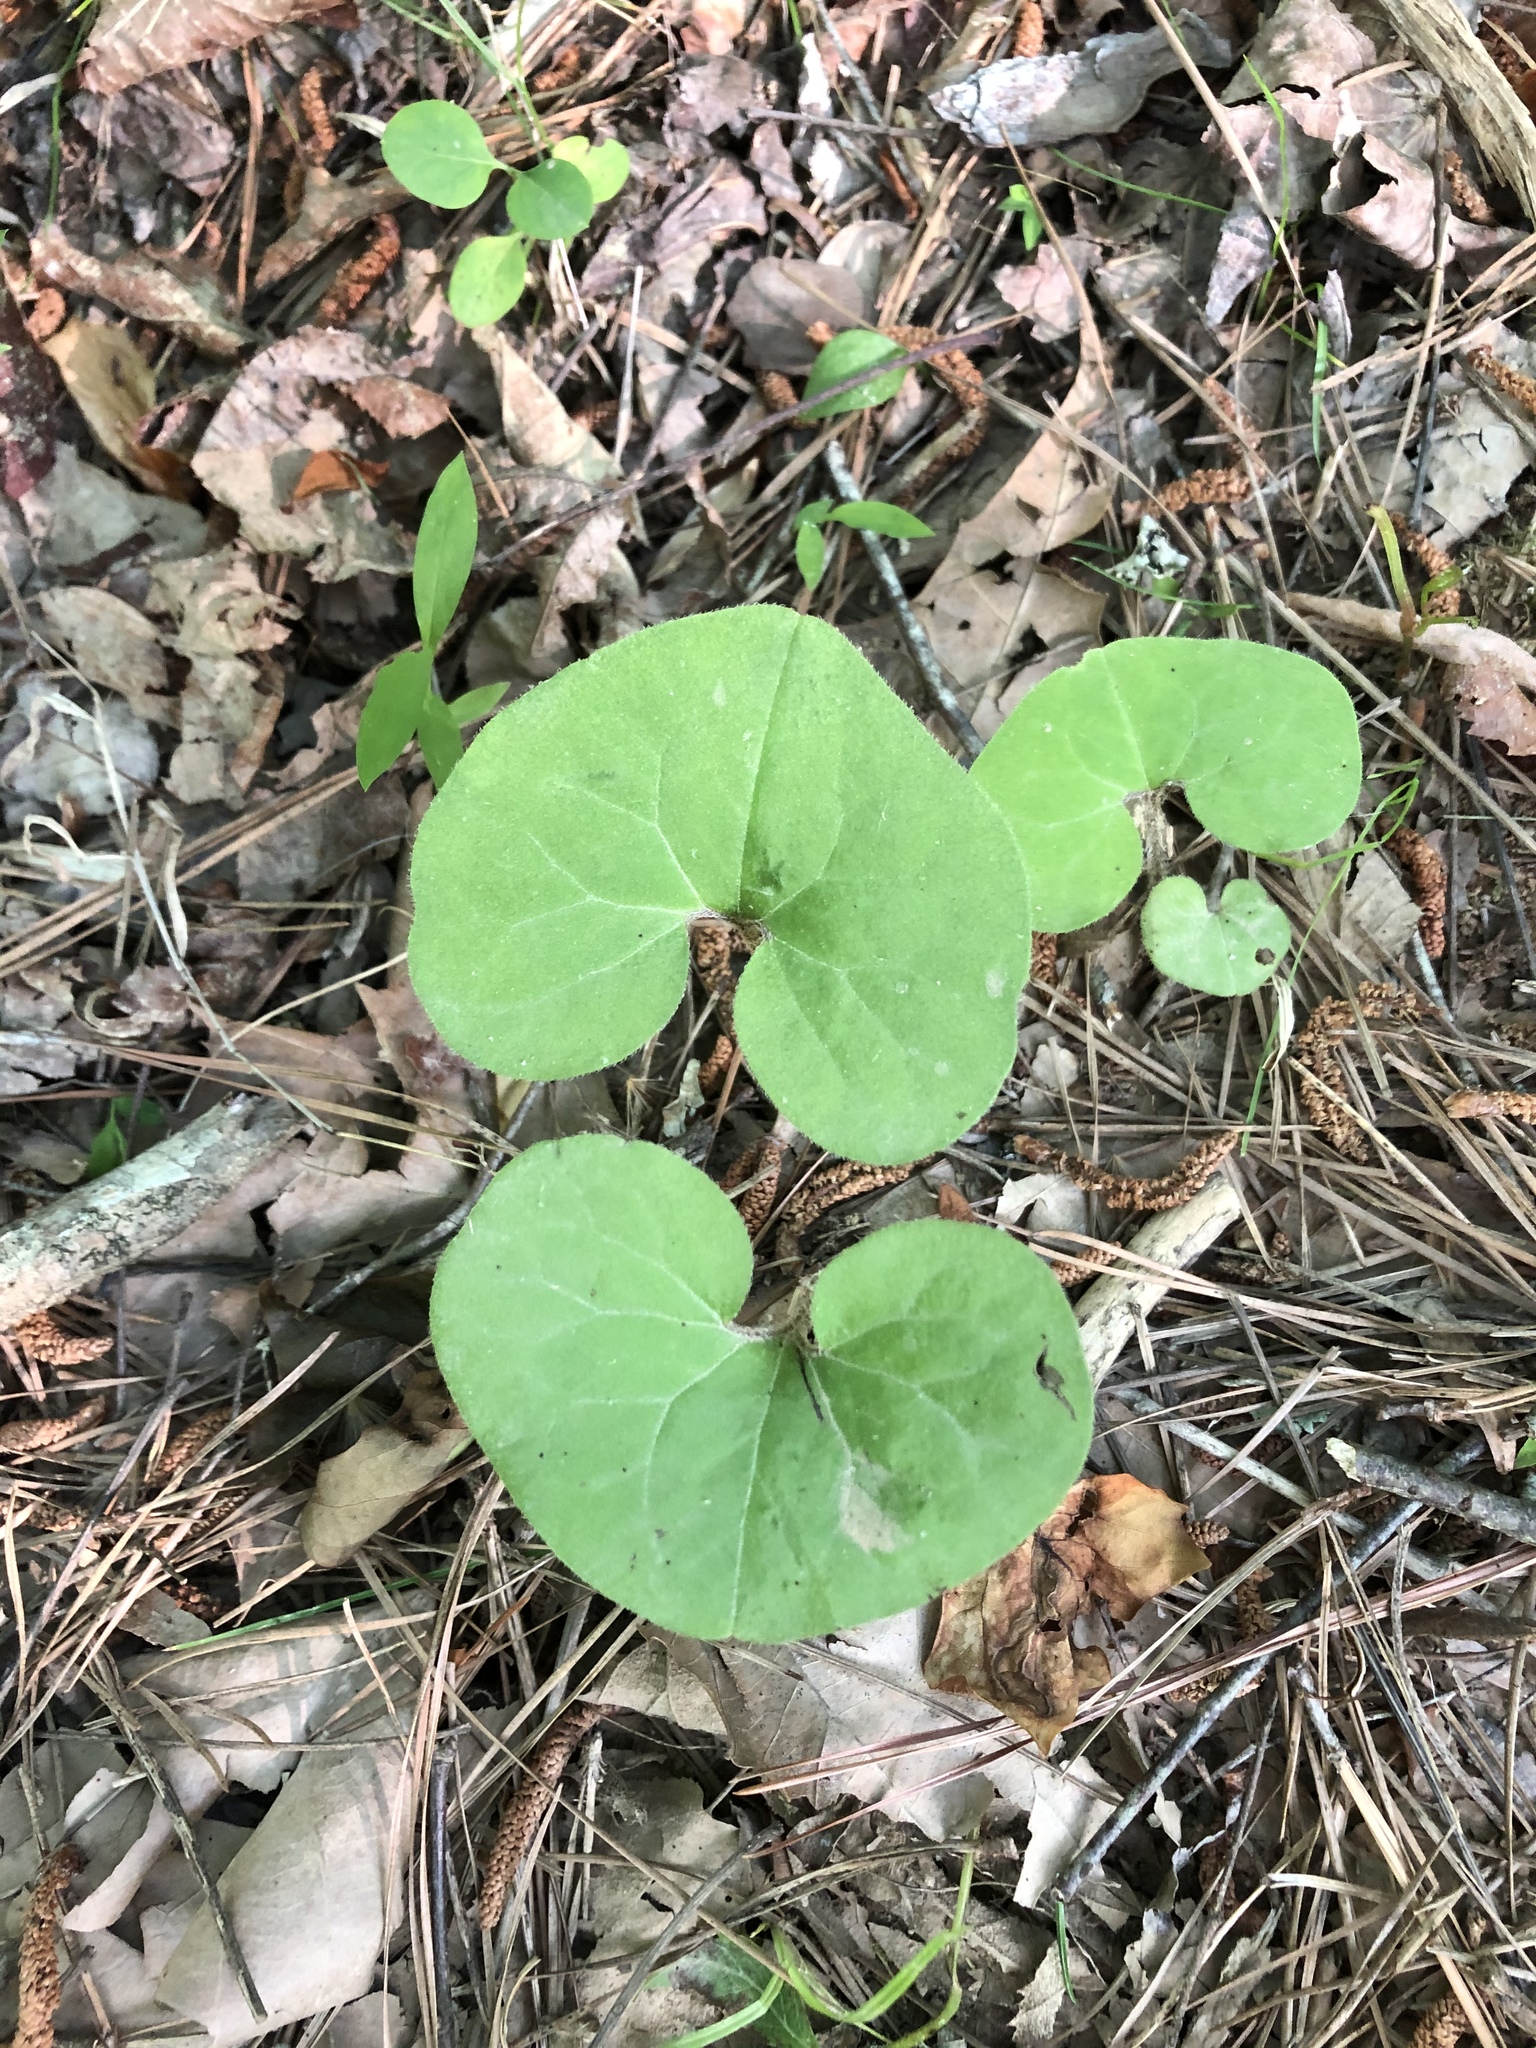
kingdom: Plantae
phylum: Tracheophyta
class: Magnoliopsida
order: Piperales
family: Aristolochiaceae
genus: Asarum
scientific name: Asarum canadense
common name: Wild ginger
